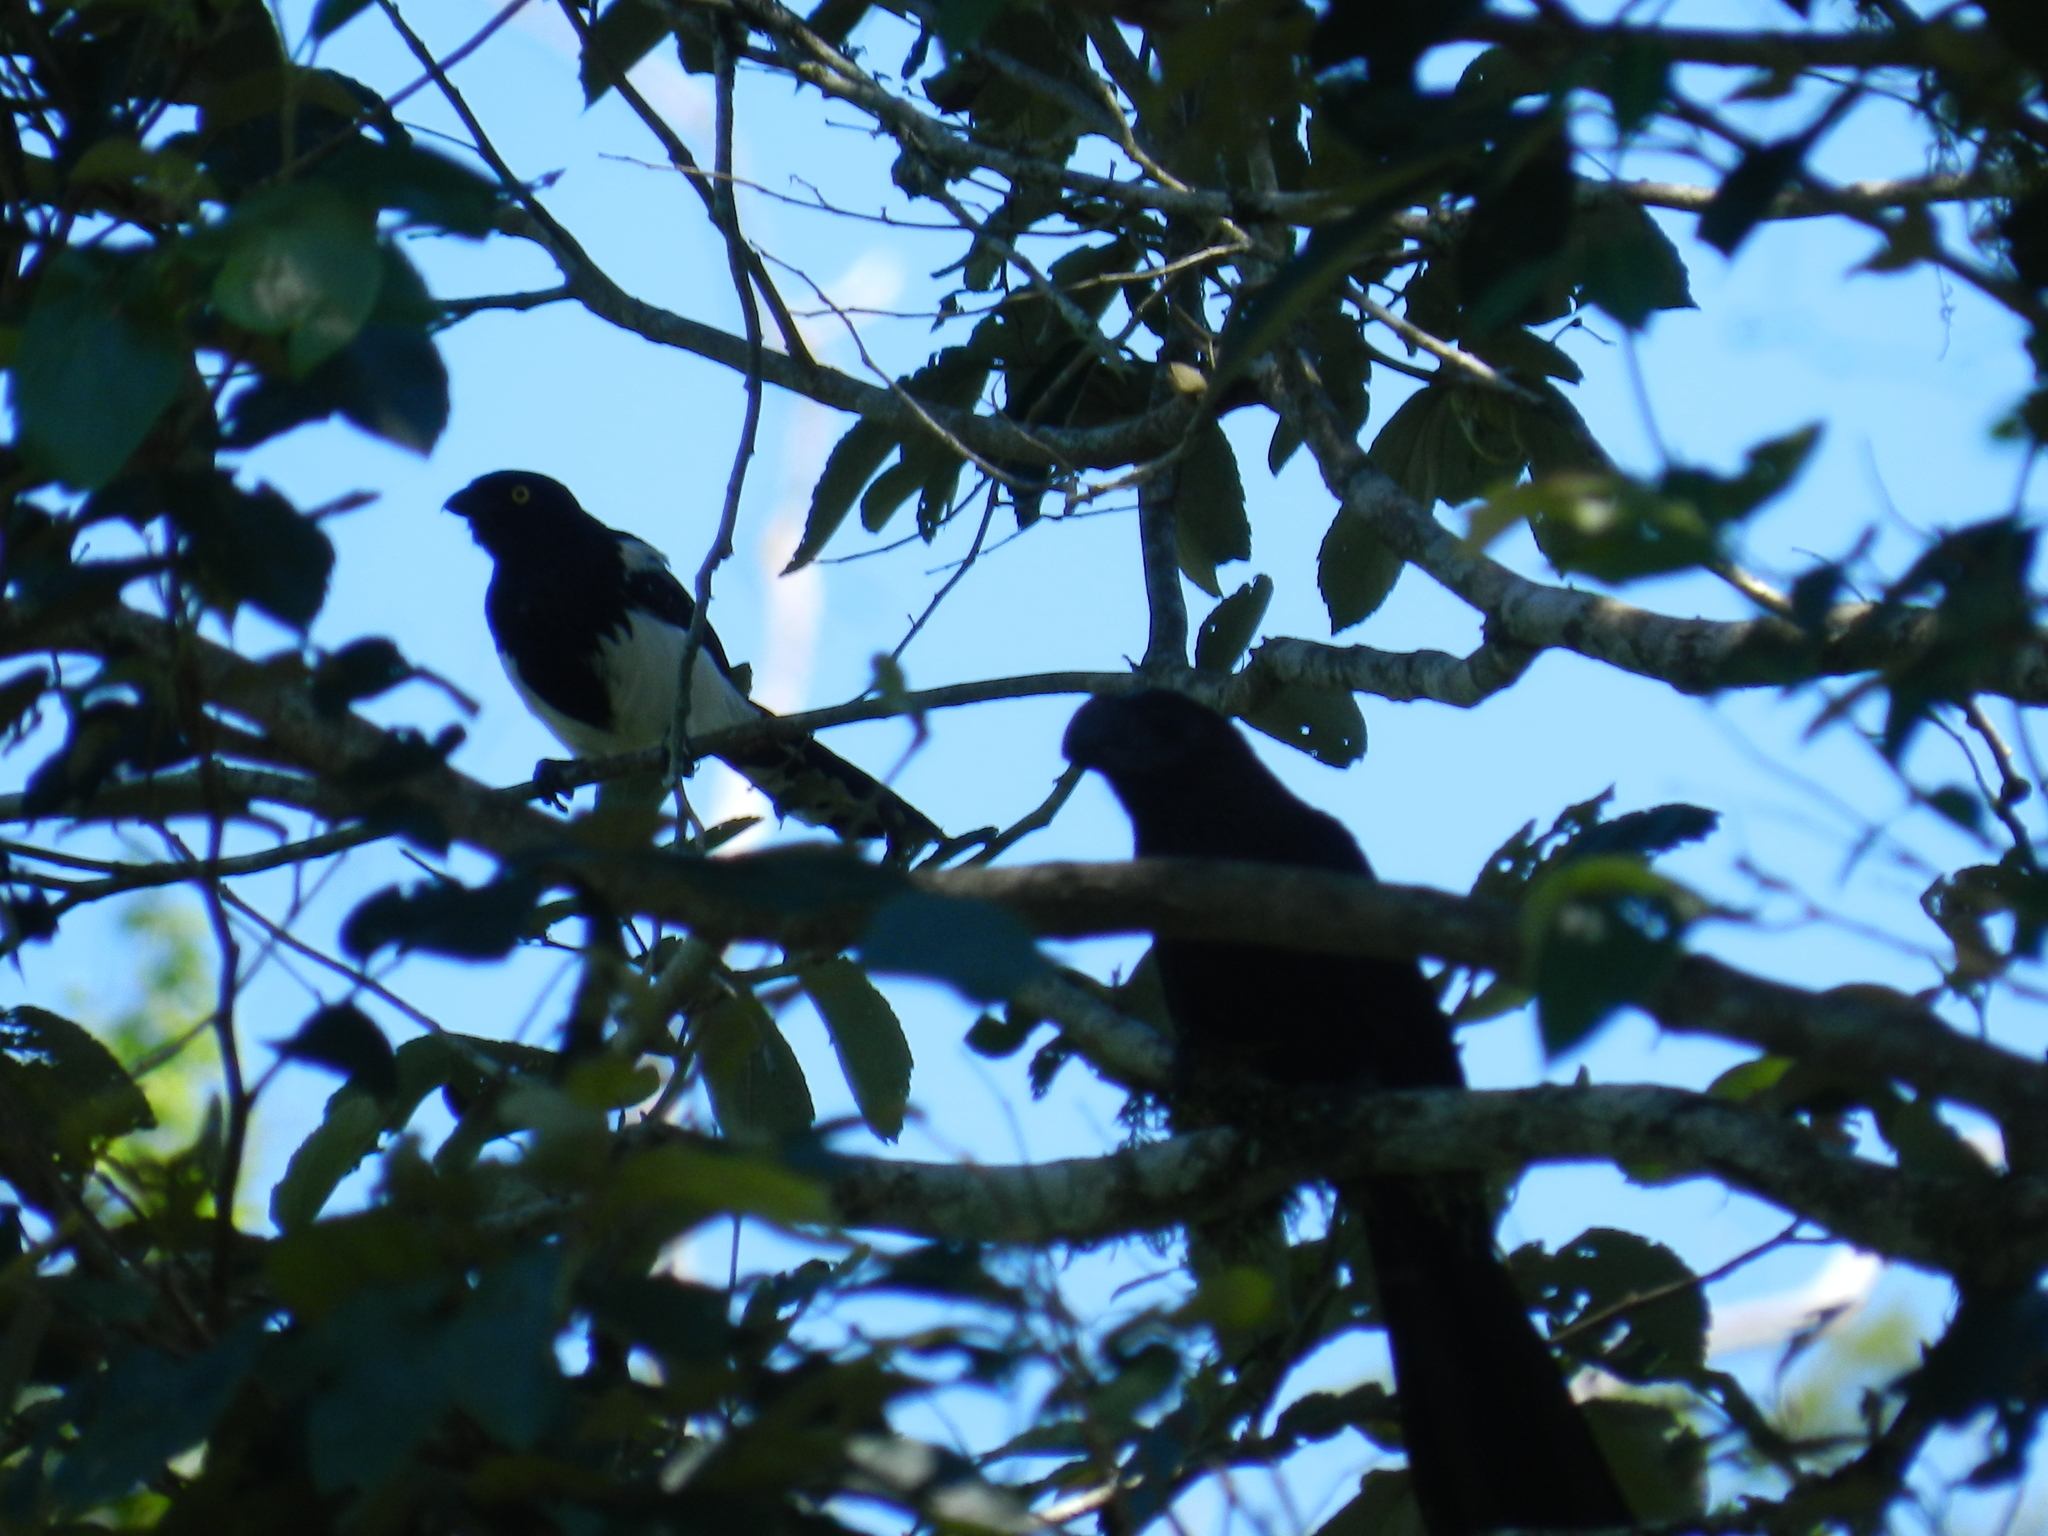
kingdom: Animalia
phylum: Chordata
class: Aves
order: Cuculiformes
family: Cuculidae
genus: Crotophaga
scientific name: Crotophaga ani
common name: Smooth-billed ani
